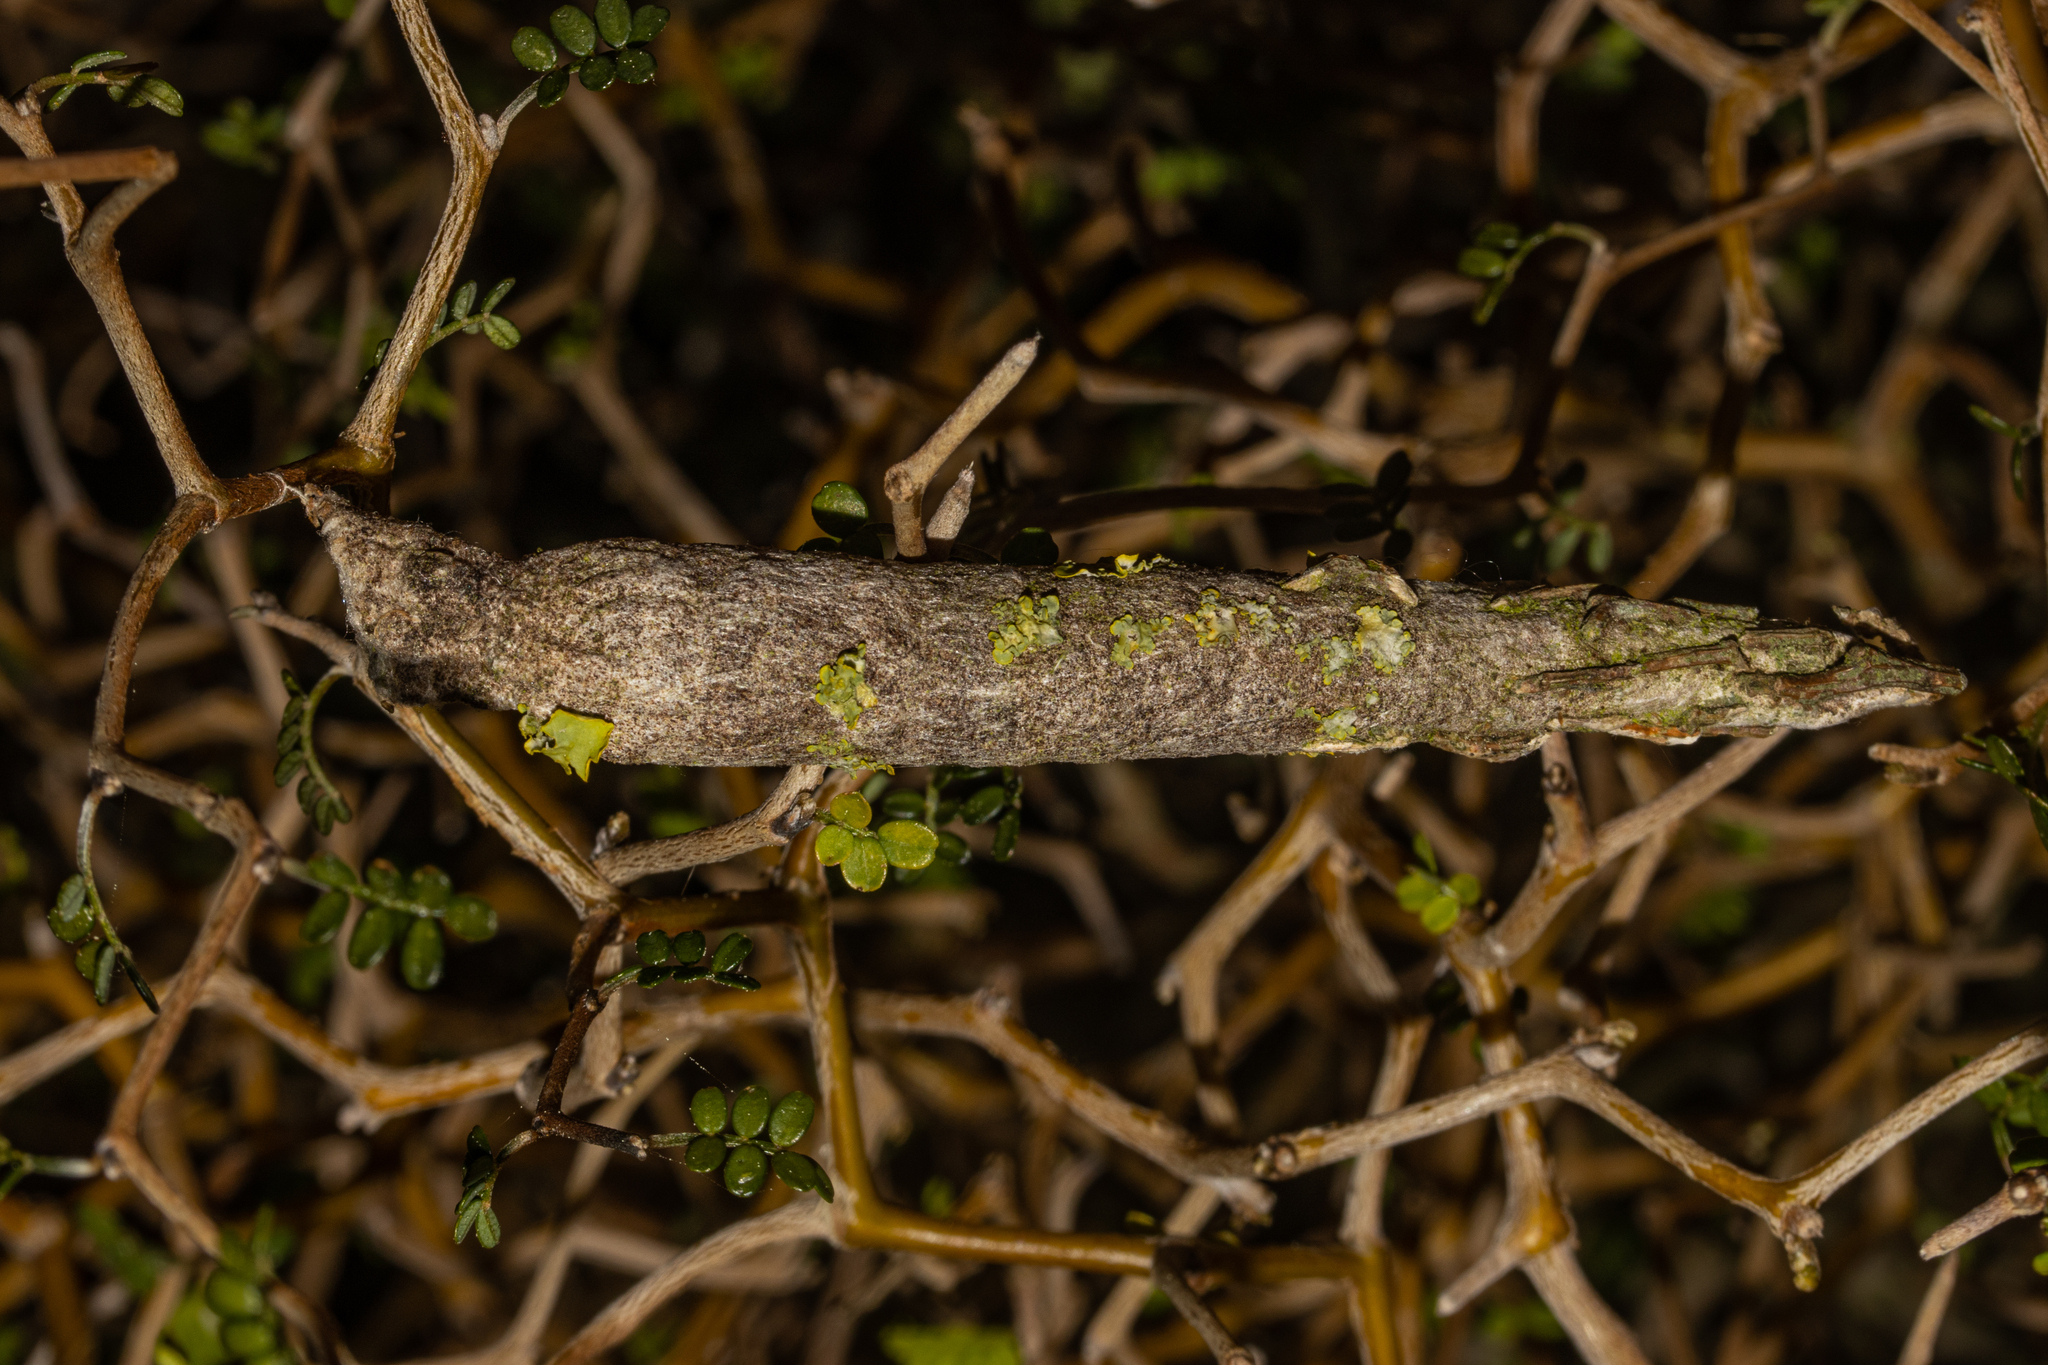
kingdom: Animalia
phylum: Arthropoda
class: Insecta
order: Lepidoptera
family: Psychidae
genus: Liothula
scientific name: Liothula omnivora
